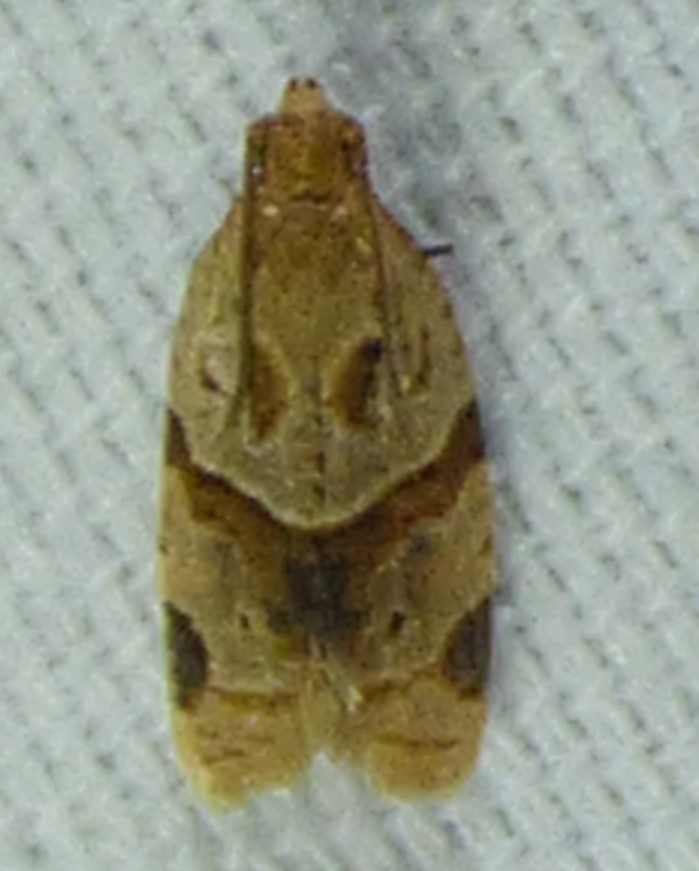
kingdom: Animalia
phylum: Arthropoda
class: Insecta
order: Lepidoptera
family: Tortricidae
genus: Clepsis
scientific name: Clepsis peritana
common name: Garden tortrix
